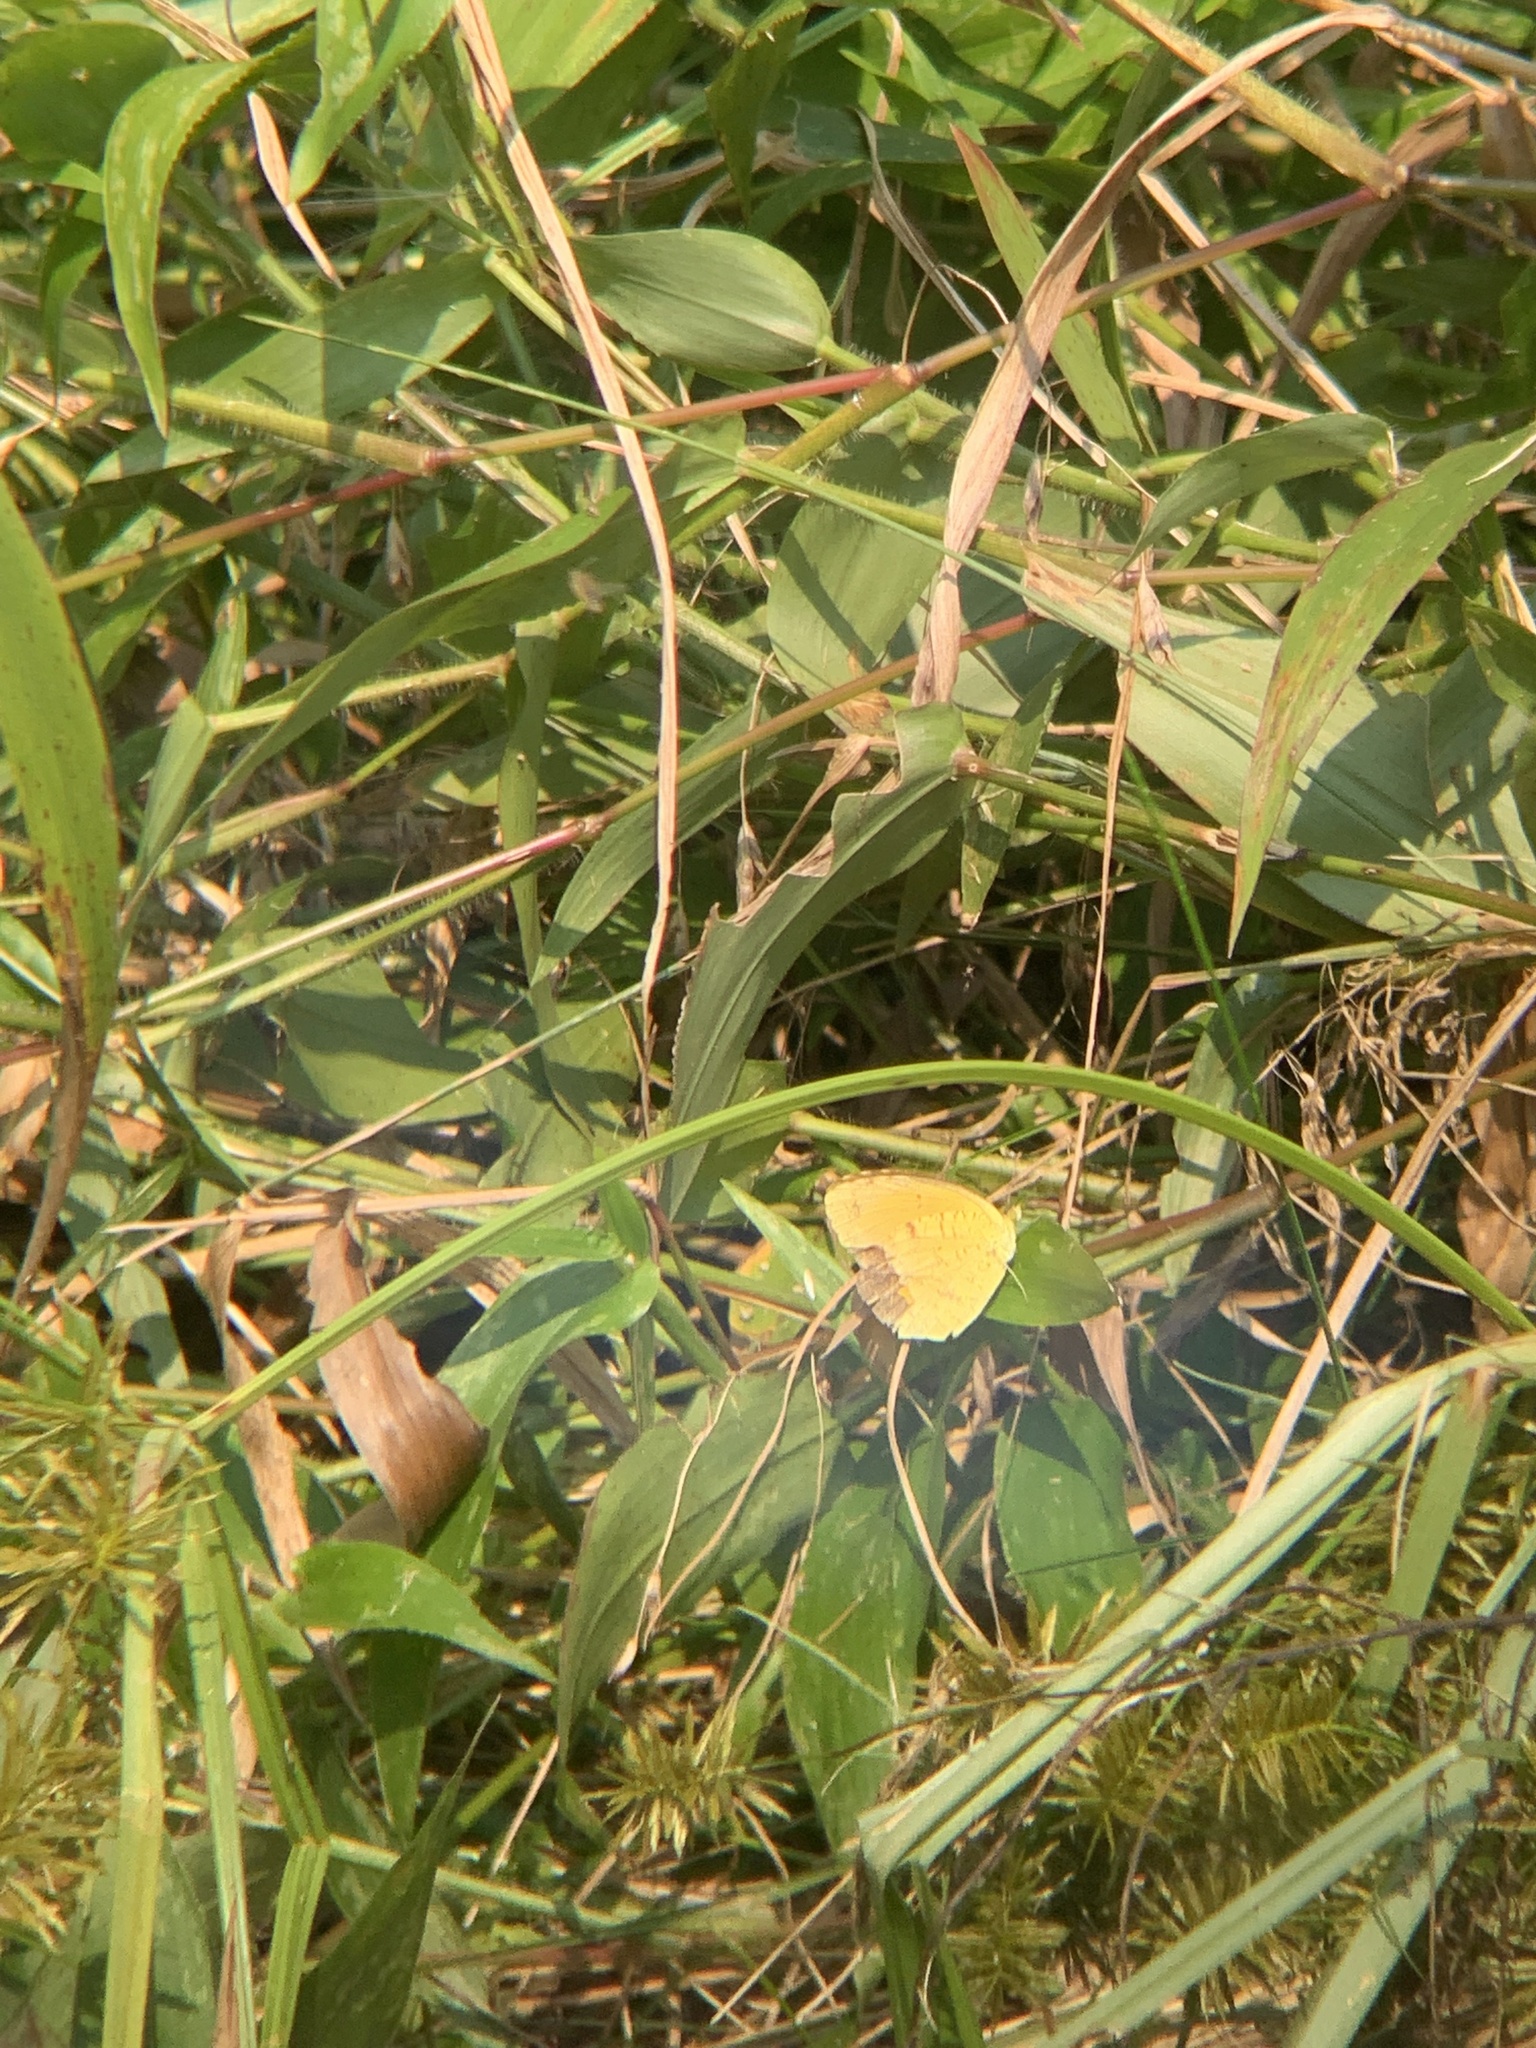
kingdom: Animalia
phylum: Arthropoda
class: Insecta
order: Lepidoptera
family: Pieridae
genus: Abaeis
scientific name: Abaeis nicippe
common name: Sleepy orange
